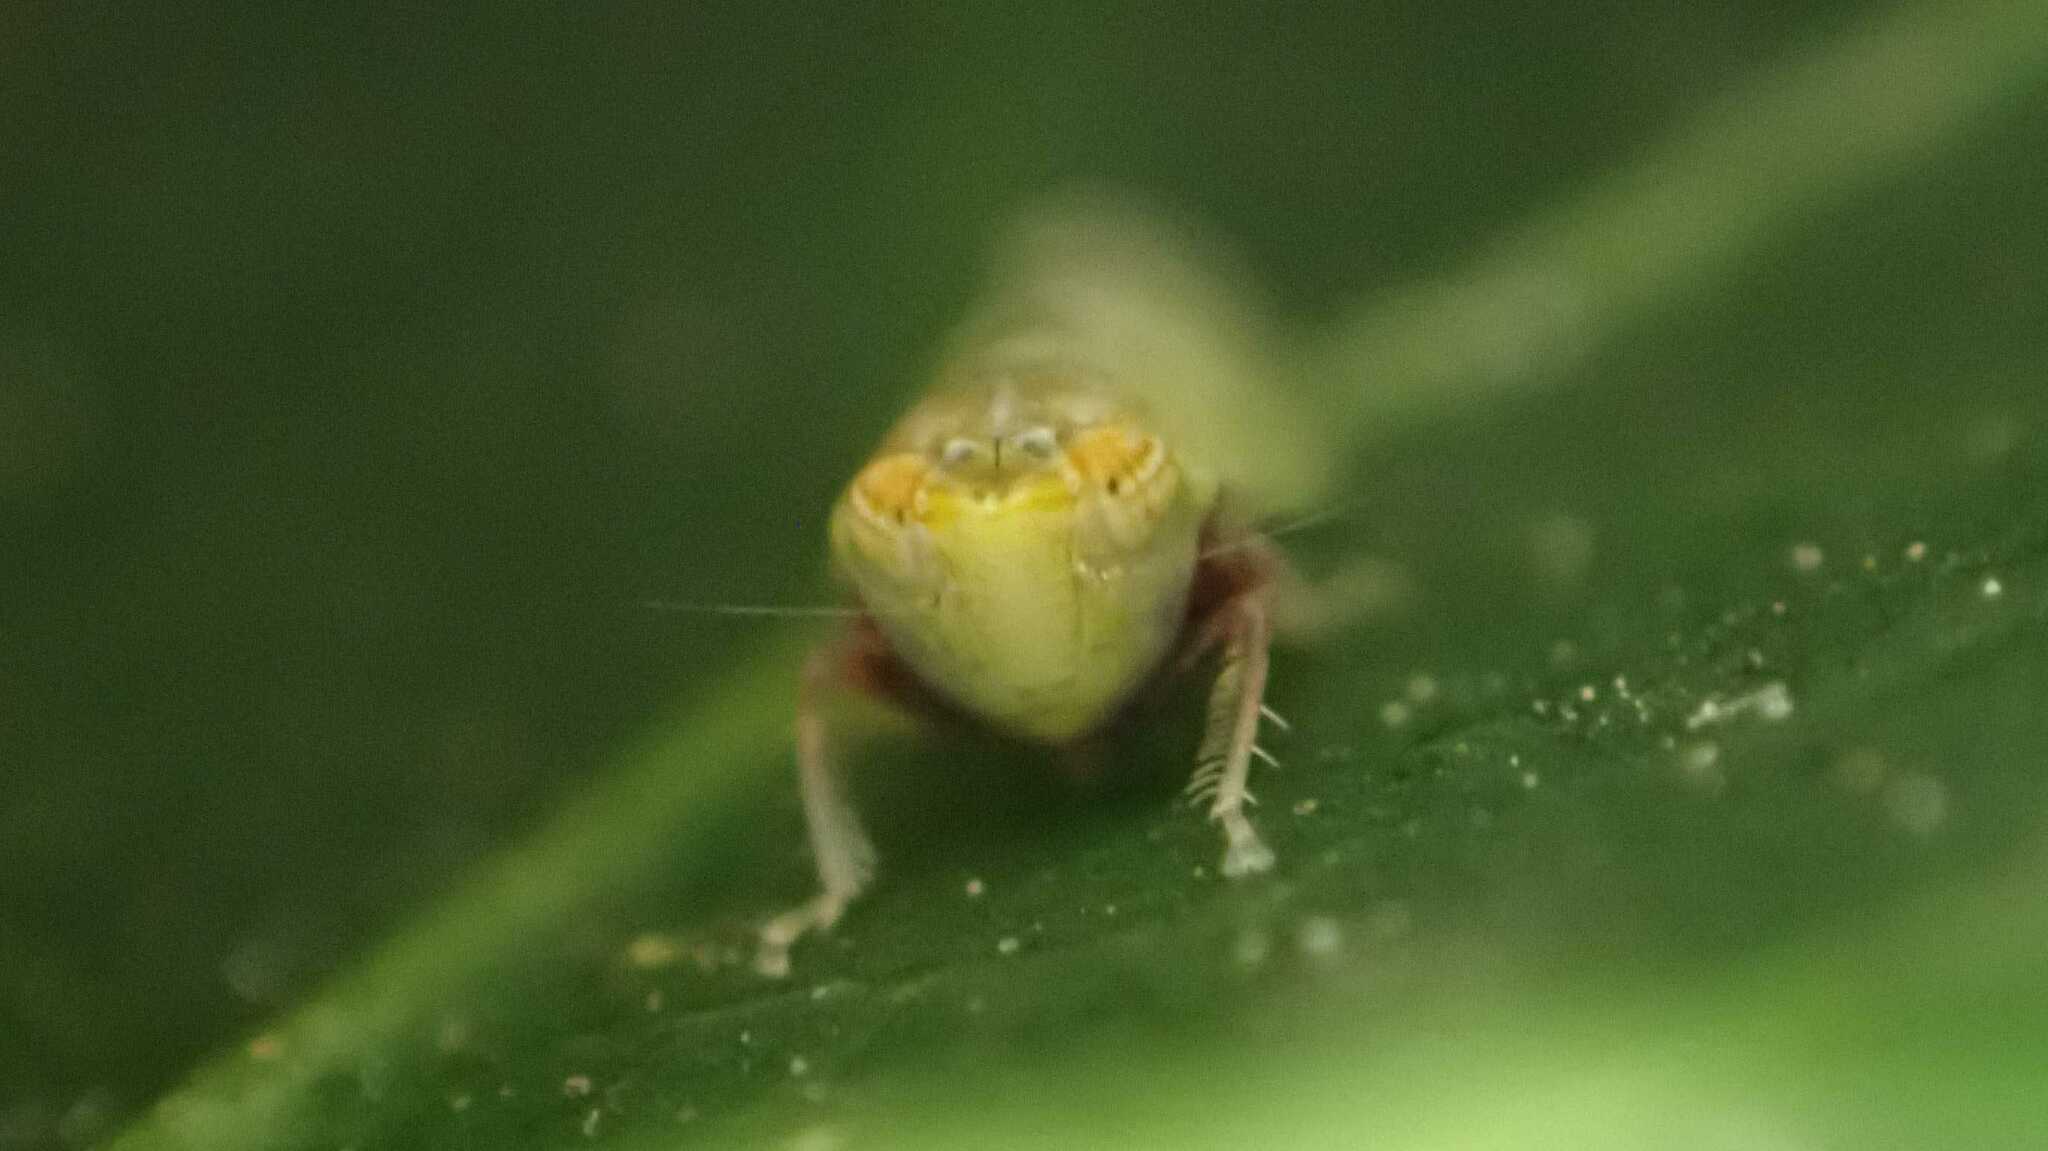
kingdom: Animalia
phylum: Arthropoda
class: Insecta
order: Hemiptera
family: Cicadellidae
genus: Japananus
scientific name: Japananus hyalinus
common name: The japanese maple leafhopper
